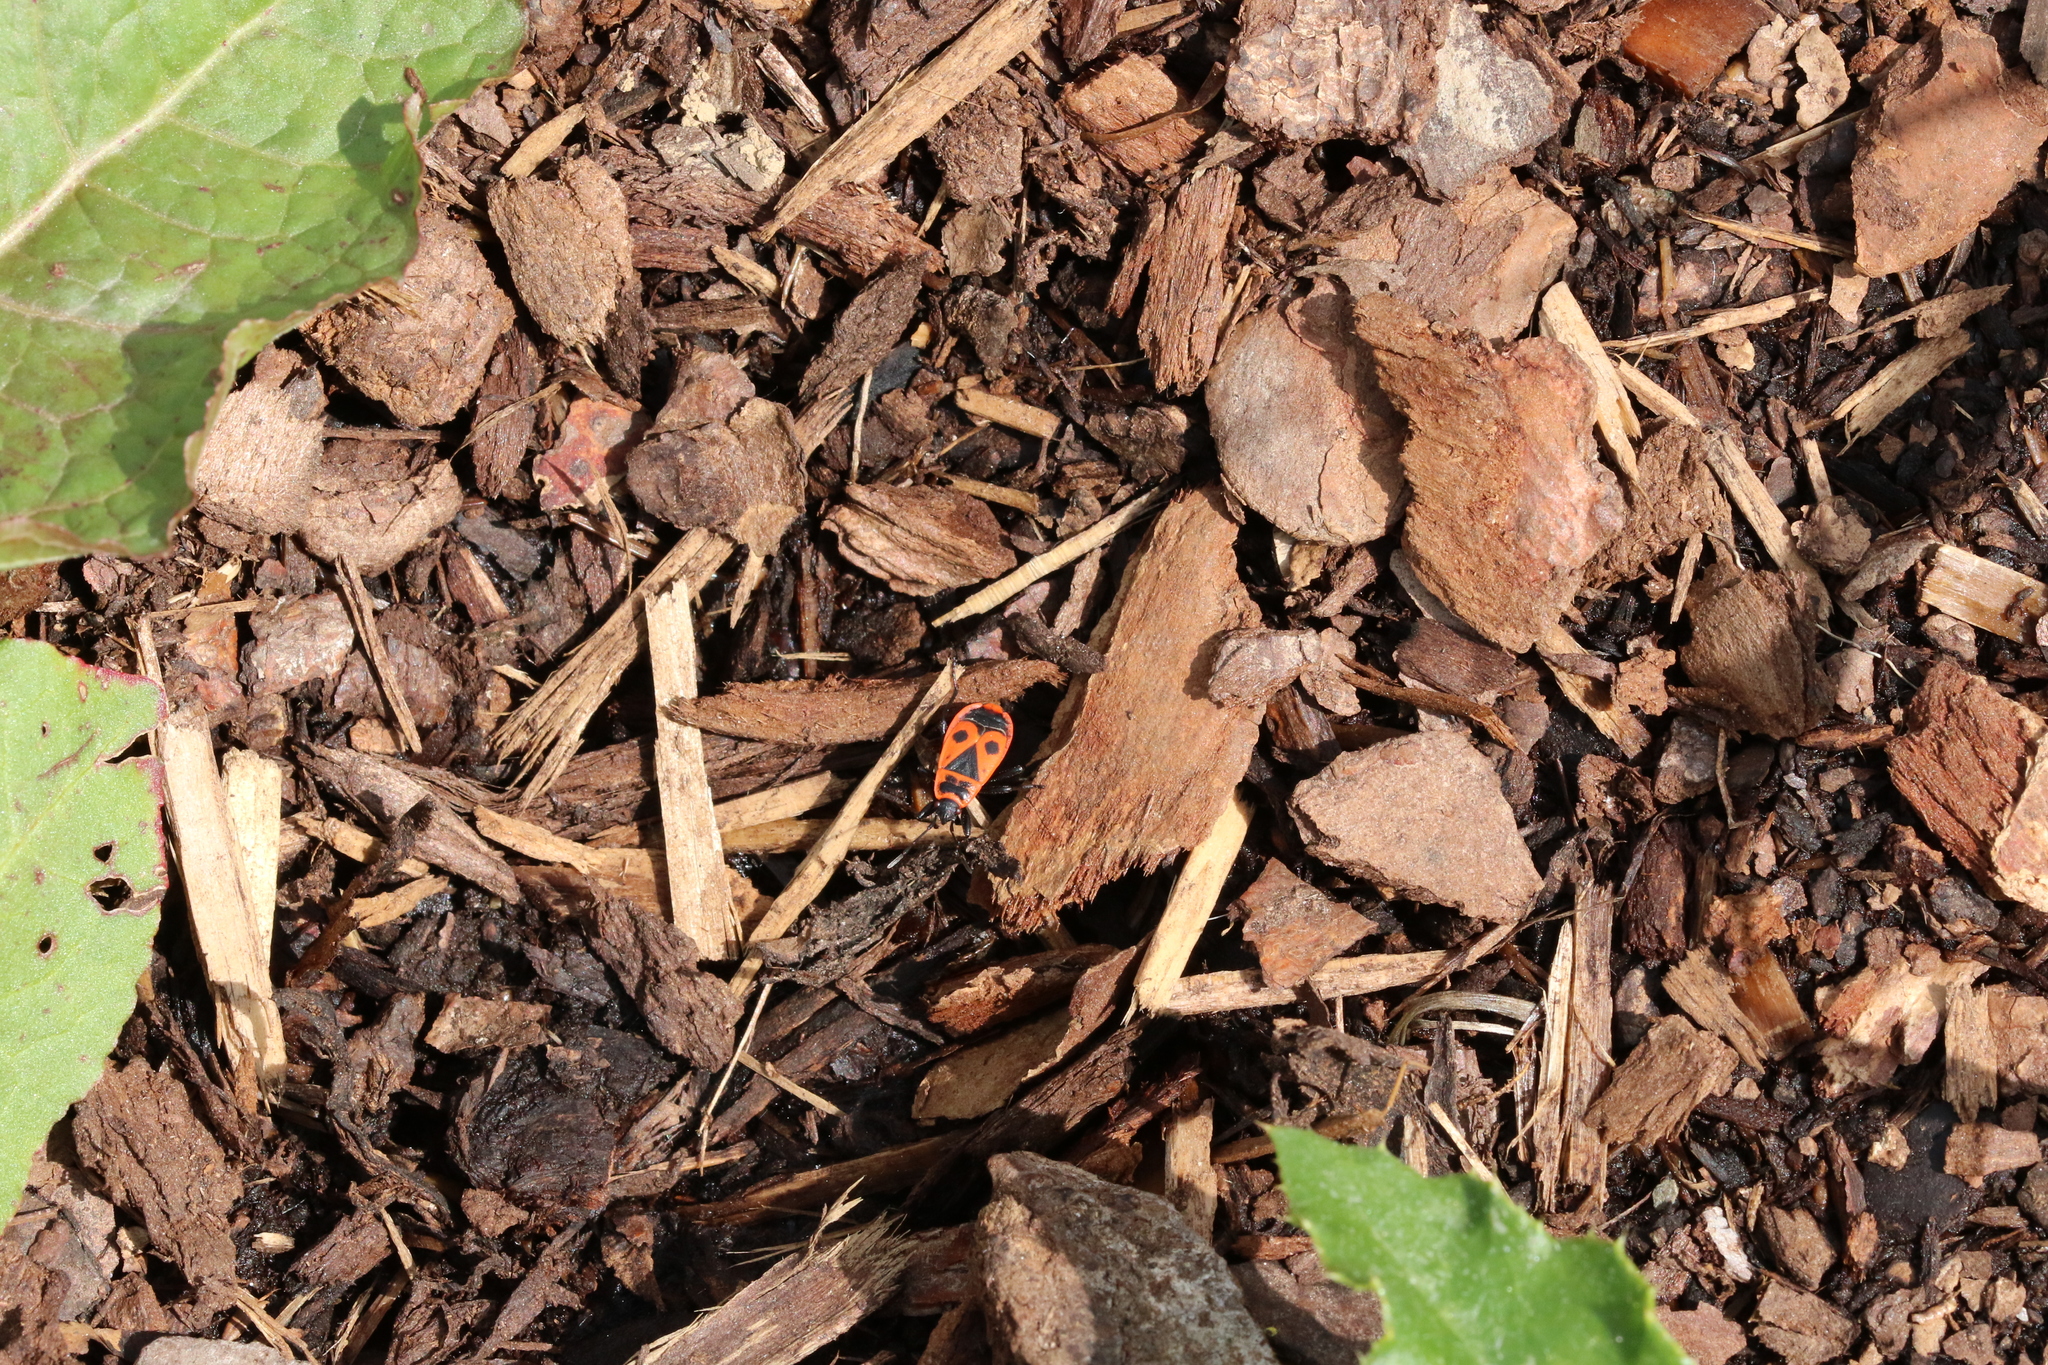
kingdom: Animalia
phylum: Arthropoda
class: Insecta
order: Hemiptera
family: Pyrrhocoridae
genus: Pyrrhocoris
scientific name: Pyrrhocoris apterus
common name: Firebug
